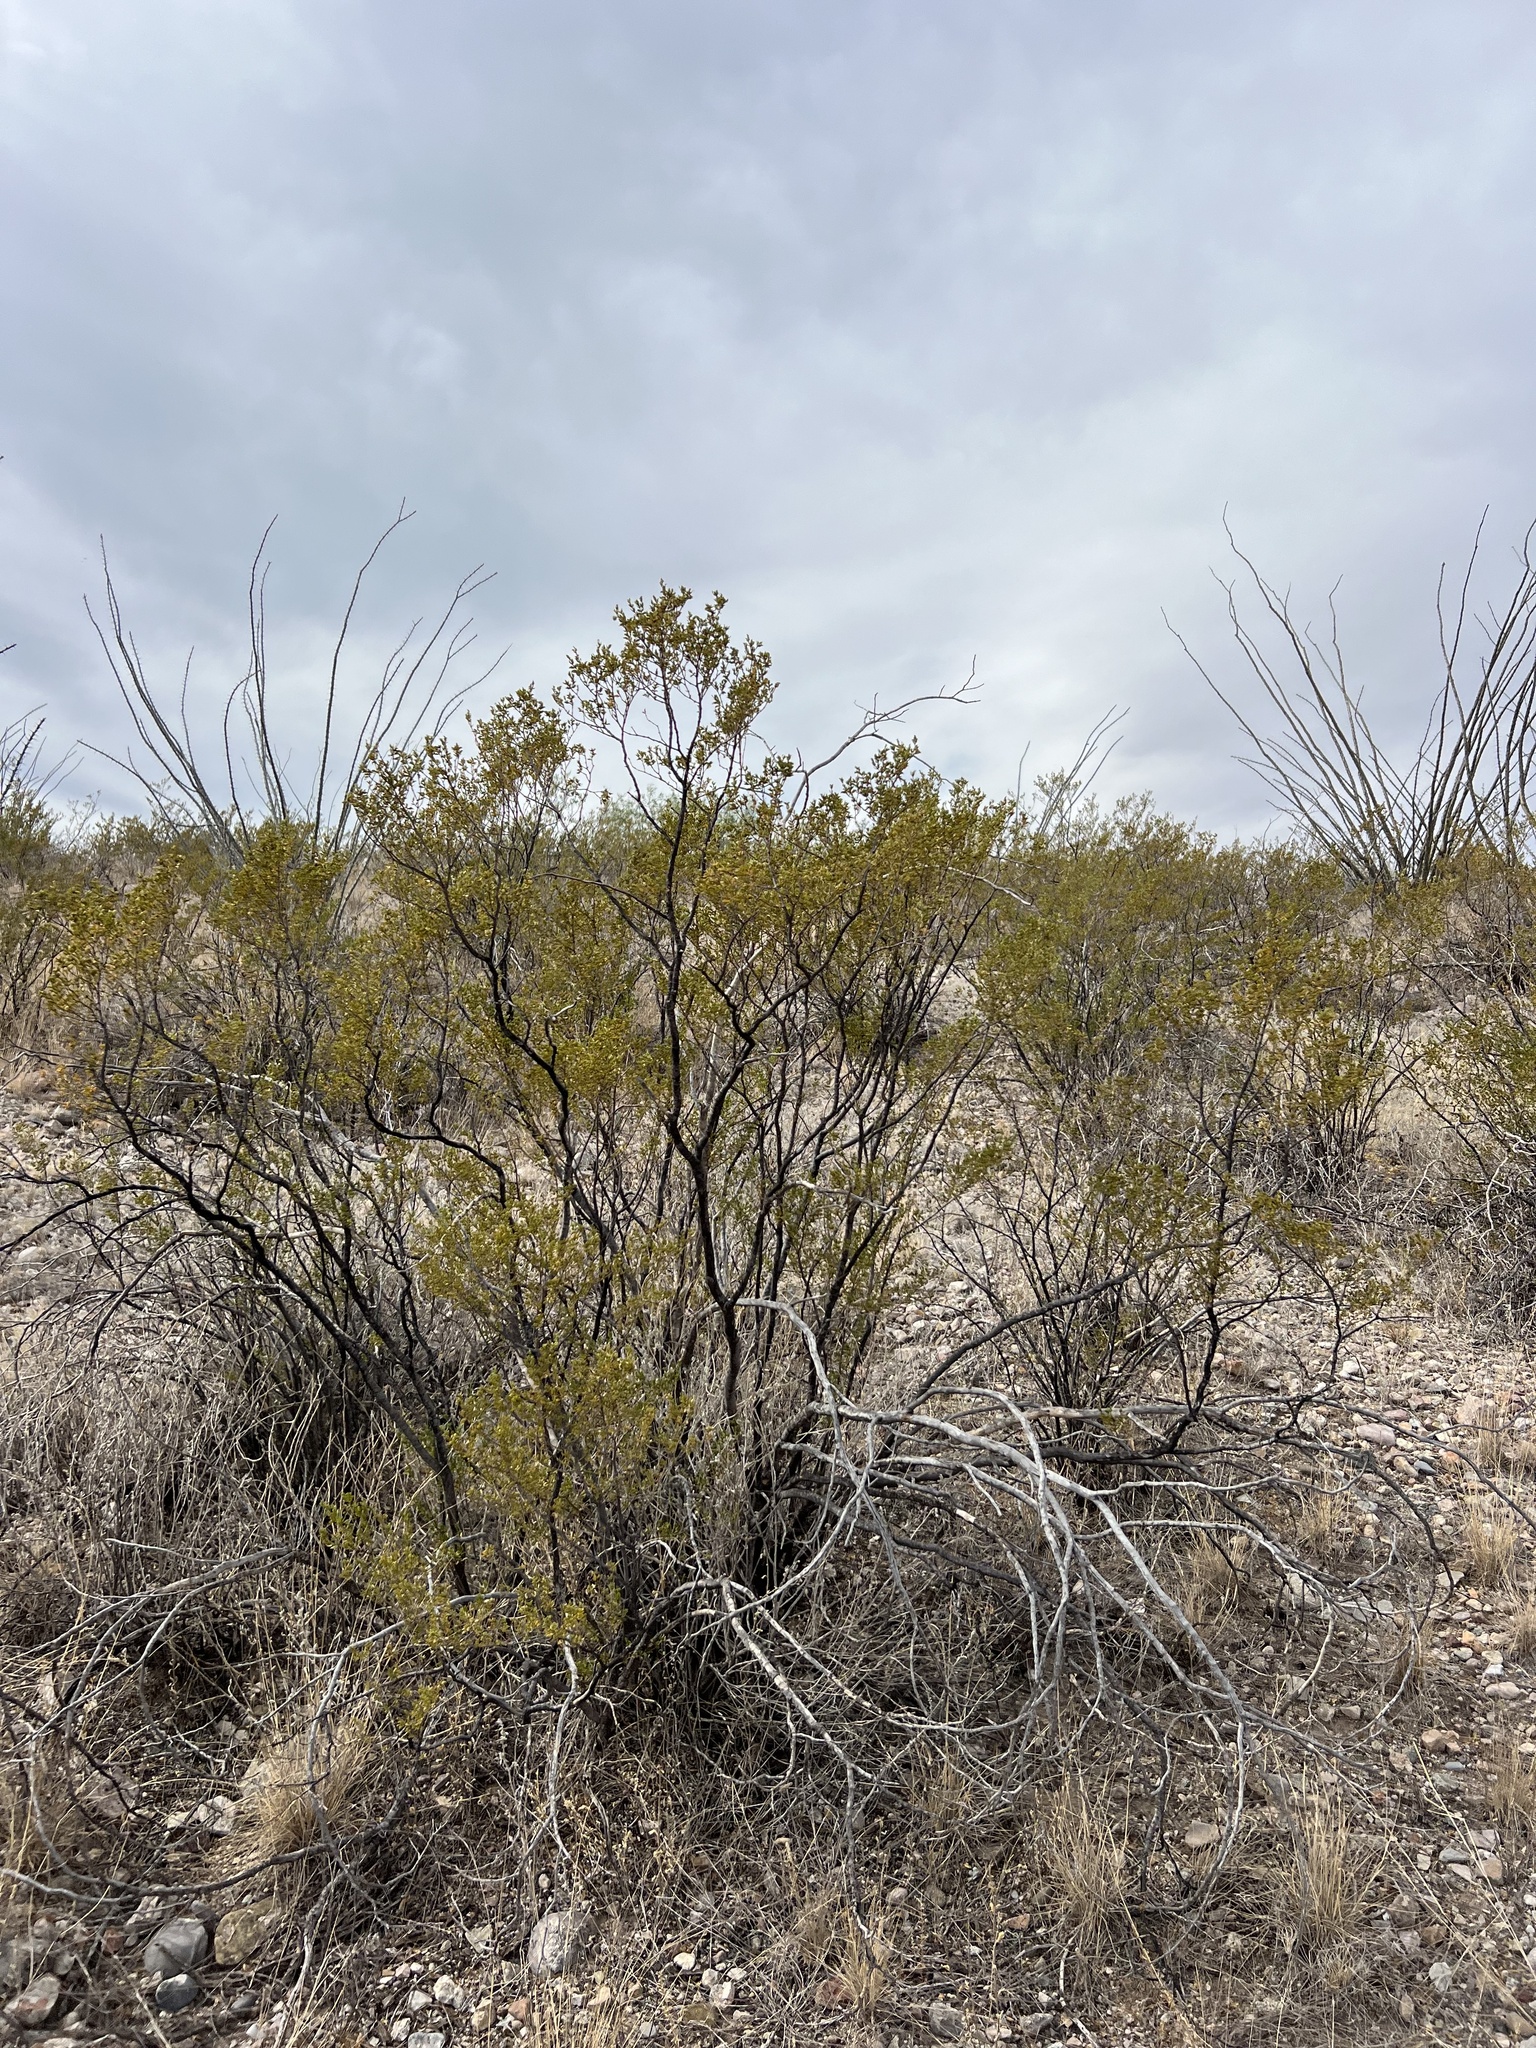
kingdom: Plantae
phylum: Tracheophyta
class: Magnoliopsida
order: Zygophyllales
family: Zygophyllaceae
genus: Larrea
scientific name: Larrea tridentata
